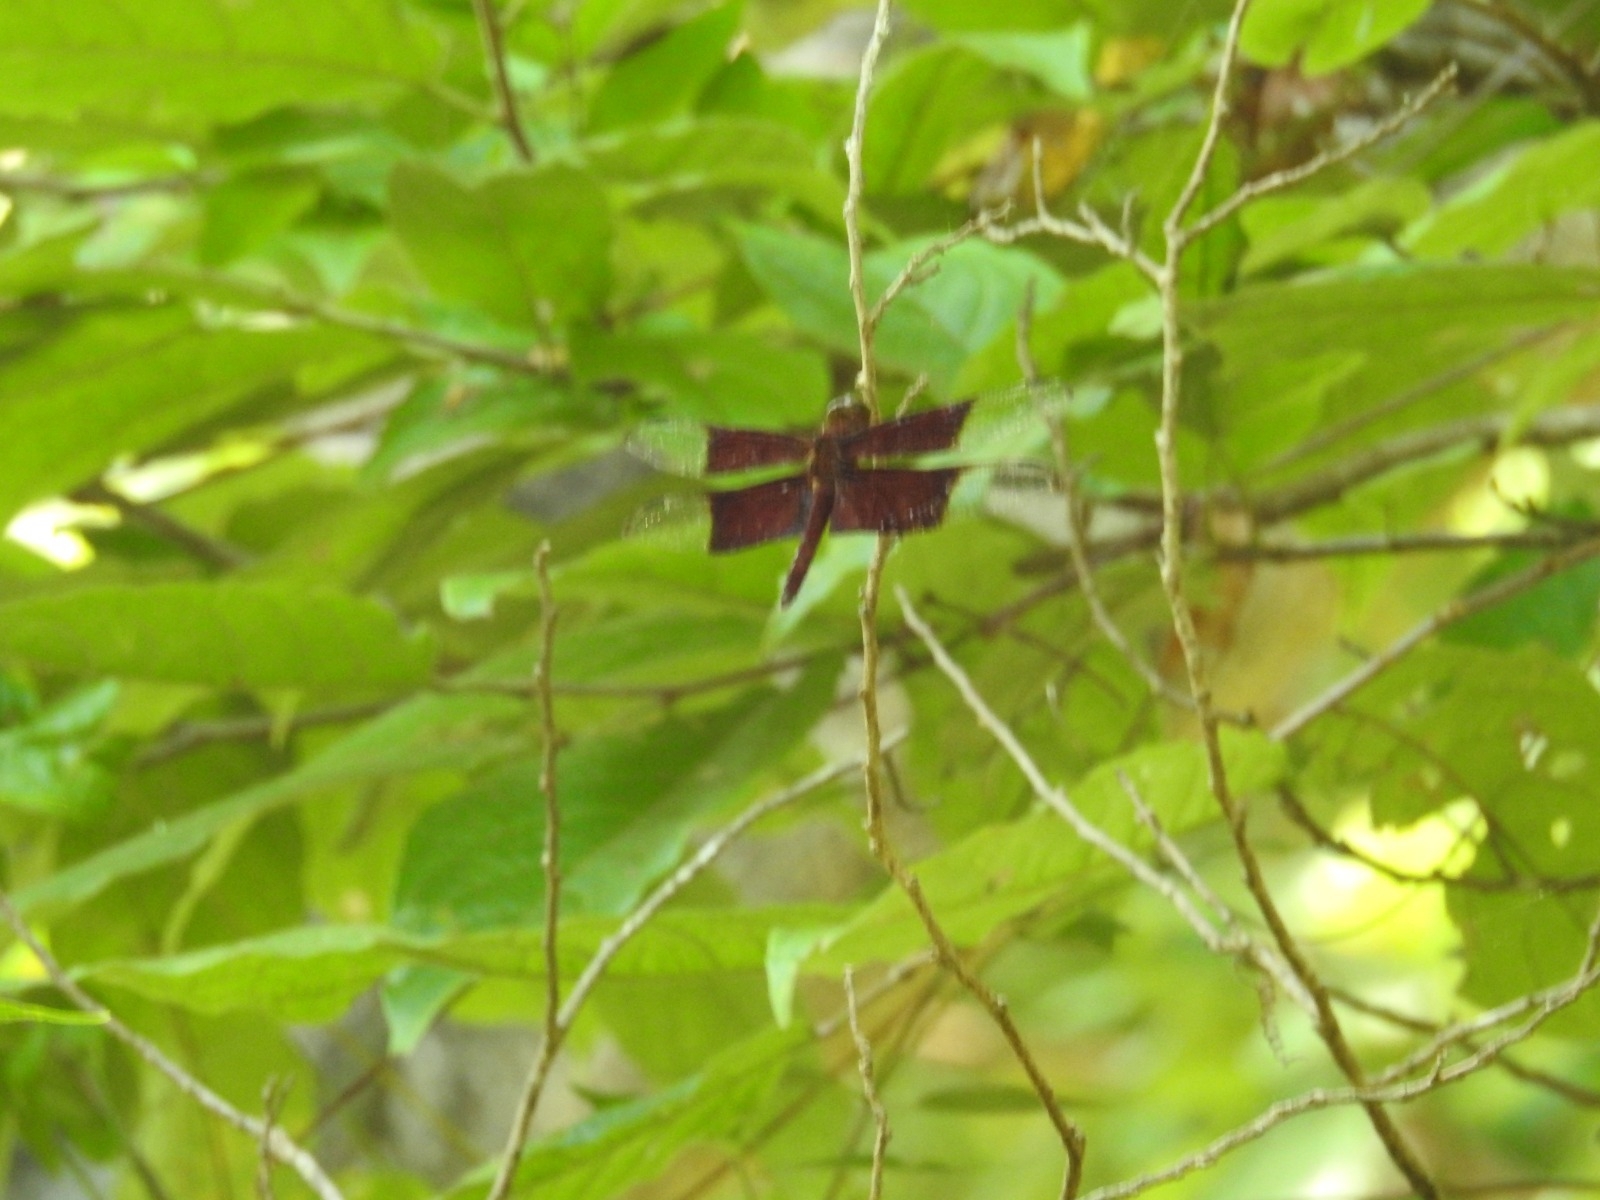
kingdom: Animalia
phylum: Arthropoda
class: Insecta
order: Odonata
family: Libellulidae
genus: Camacinia
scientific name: Camacinia gigantea
